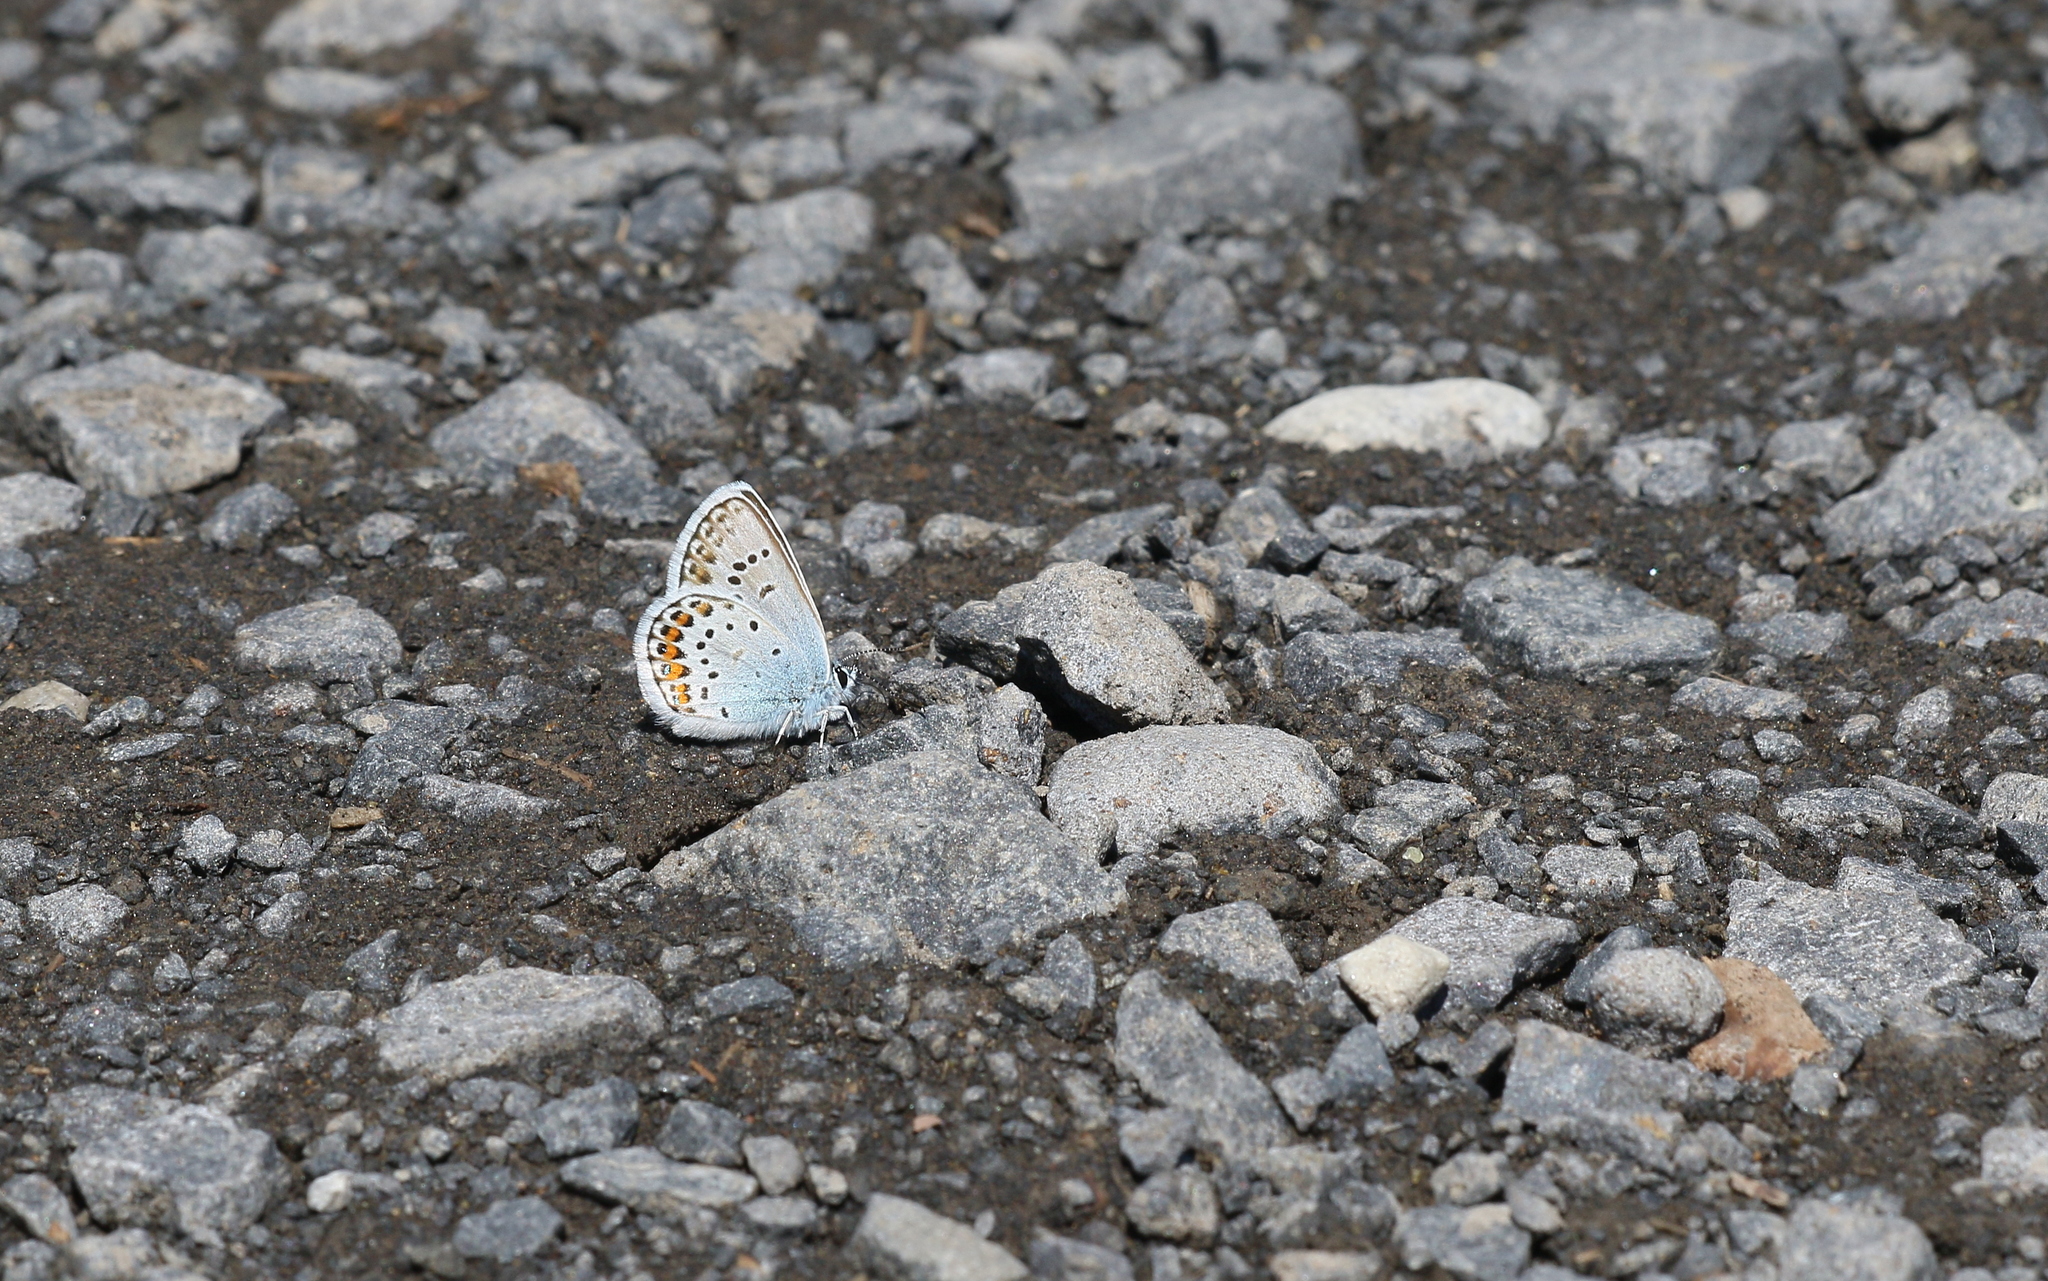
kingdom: Animalia
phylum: Arthropoda
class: Insecta
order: Lepidoptera
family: Lycaenidae
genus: Plebejus
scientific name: Plebejus argus
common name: Silver-studded blue
